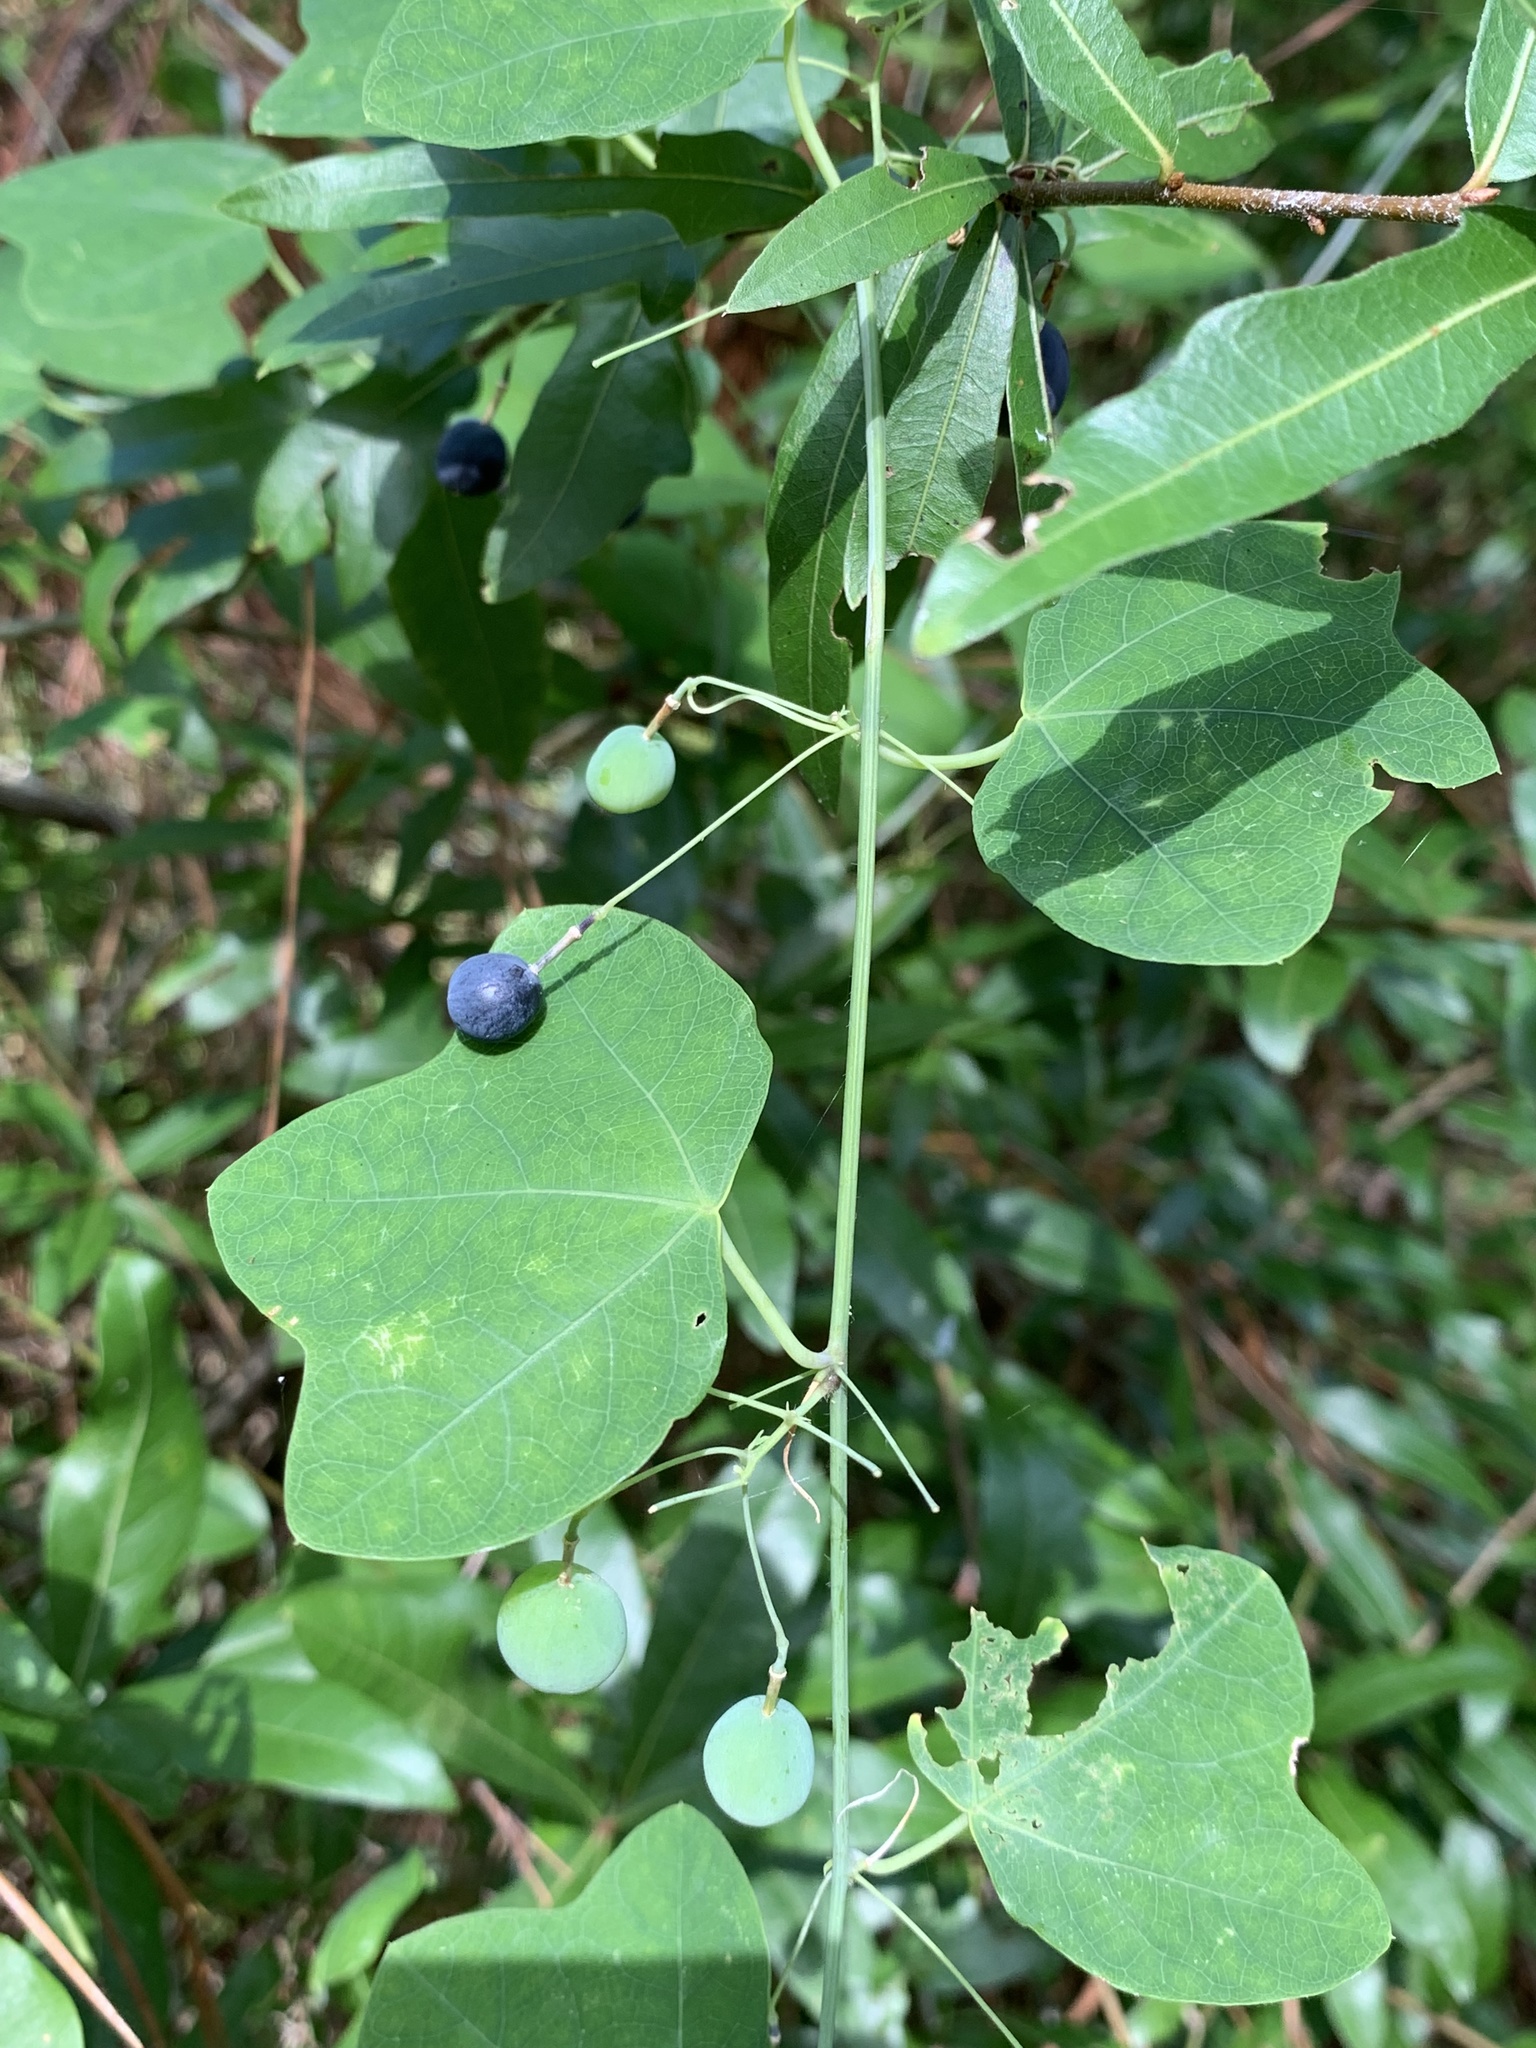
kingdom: Plantae
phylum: Tracheophyta
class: Magnoliopsida
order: Malpighiales
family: Passifloraceae
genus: Passiflora
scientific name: Passiflora lutea
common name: Yellow passionflower
